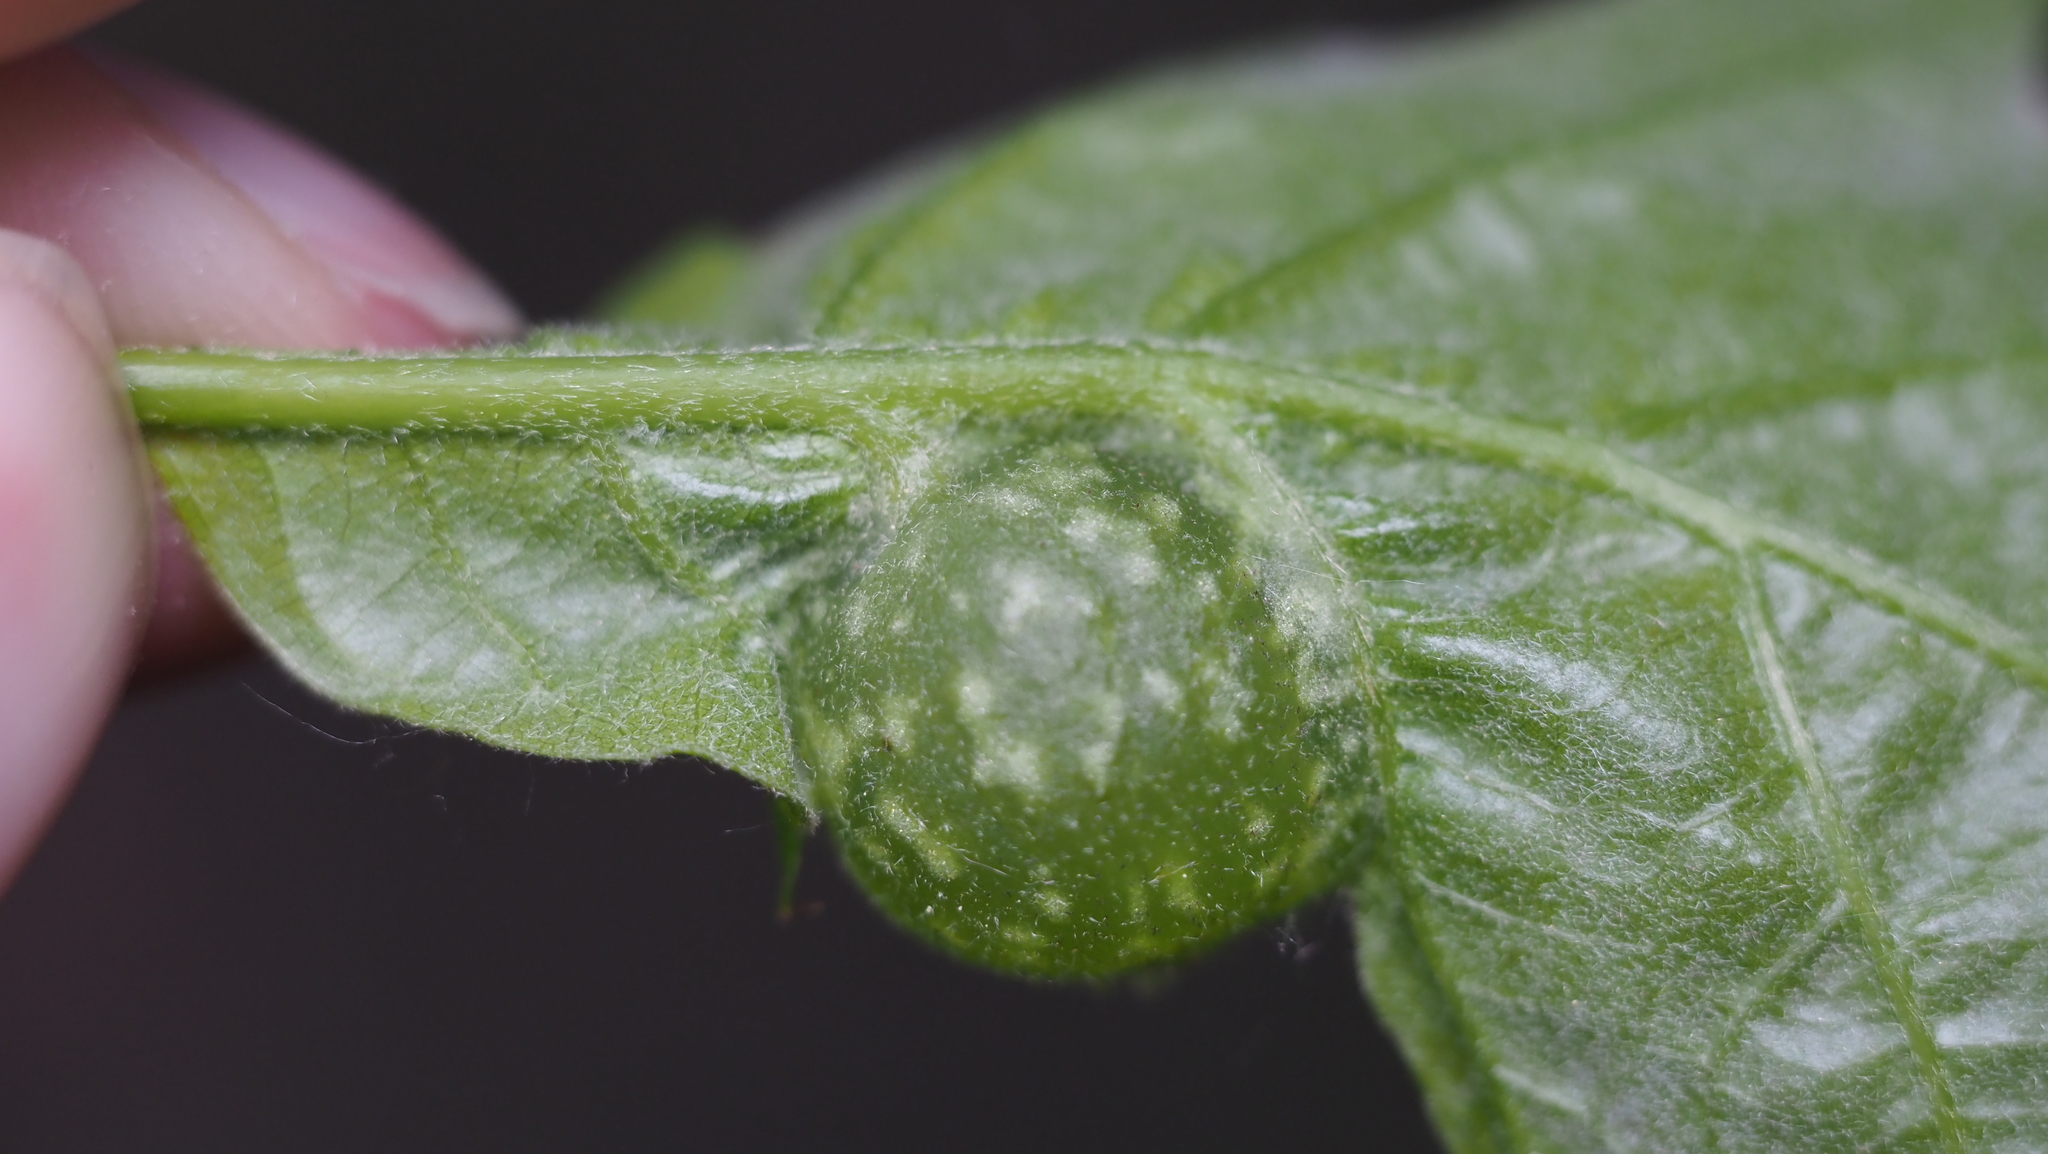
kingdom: Animalia
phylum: Arthropoda
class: Insecta
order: Hymenoptera
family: Cynipidae
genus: Dryocosmus
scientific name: Dryocosmus quercuspalustris
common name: Succulent oak gall wasp
